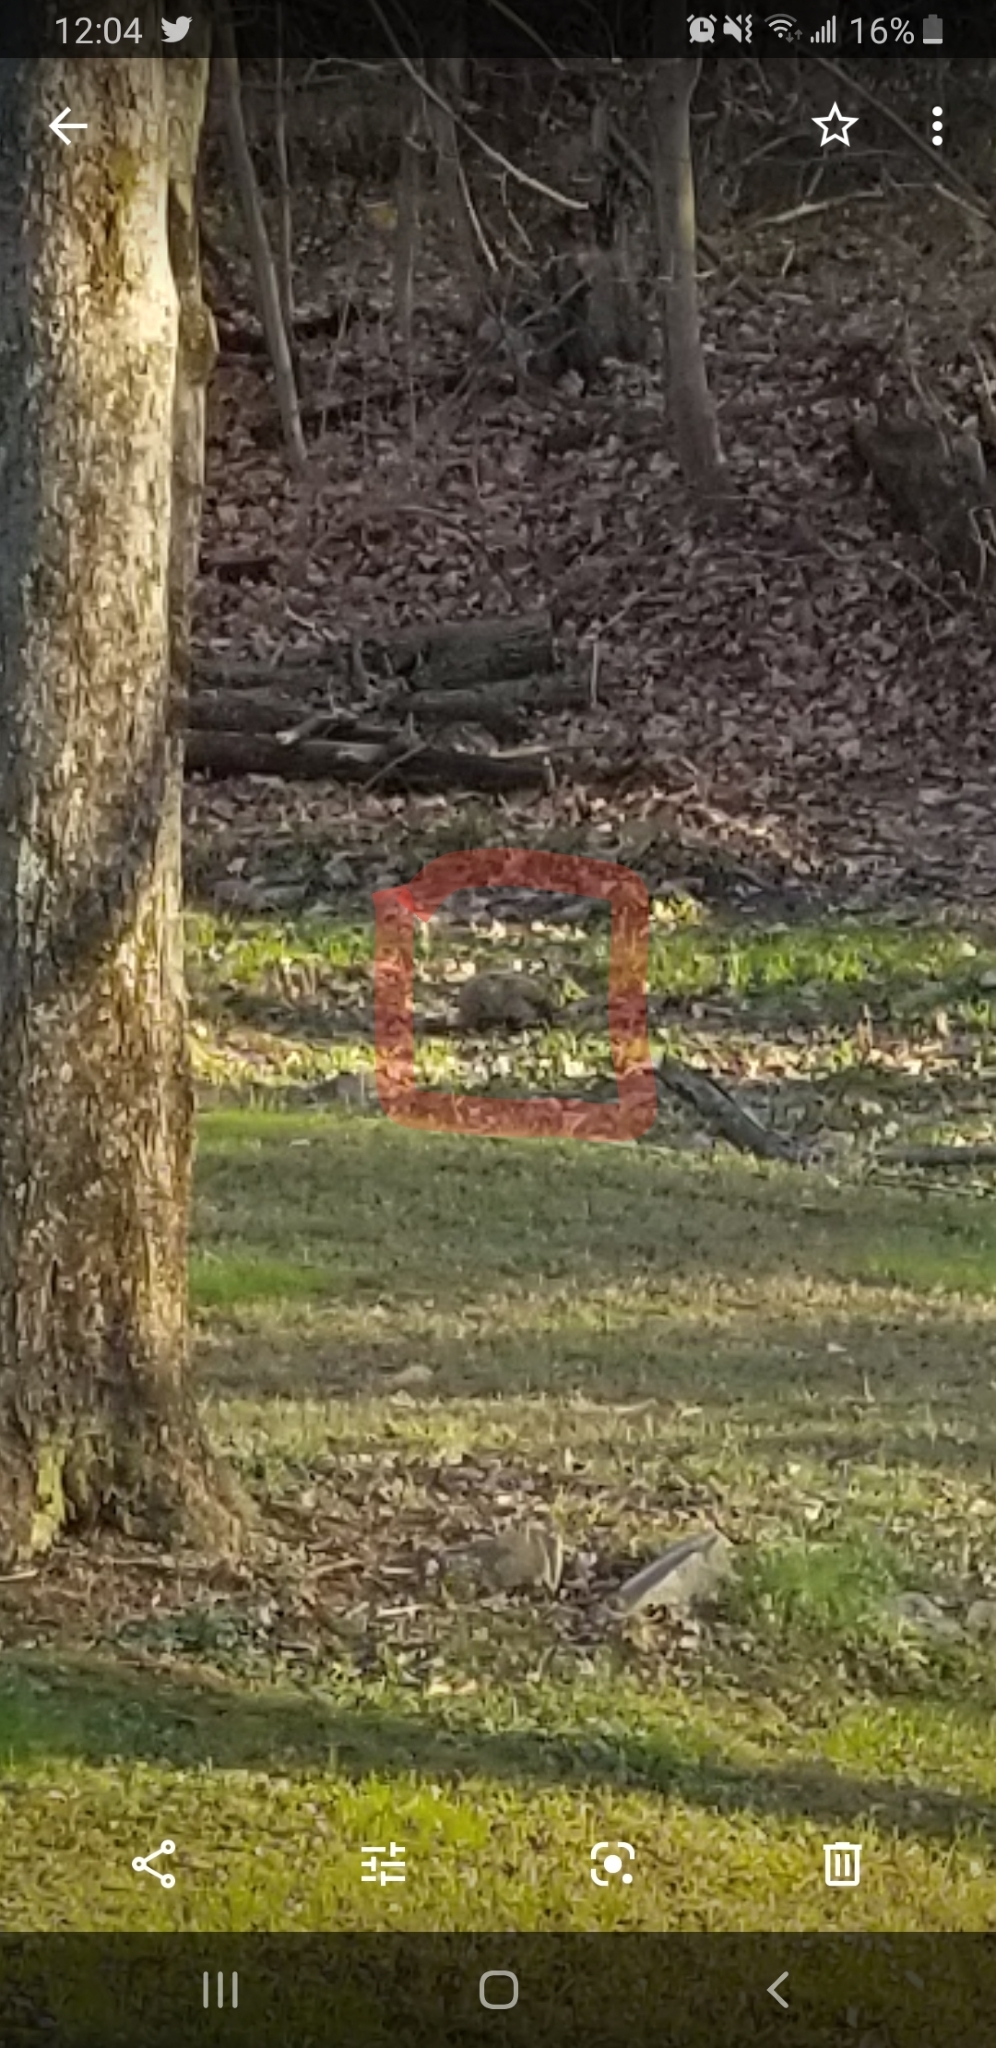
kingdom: Animalia
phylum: Chordata
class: Mammalia
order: Rodentia
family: Sciuridae
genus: Marmota
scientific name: Marmota monax
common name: Groundhog
